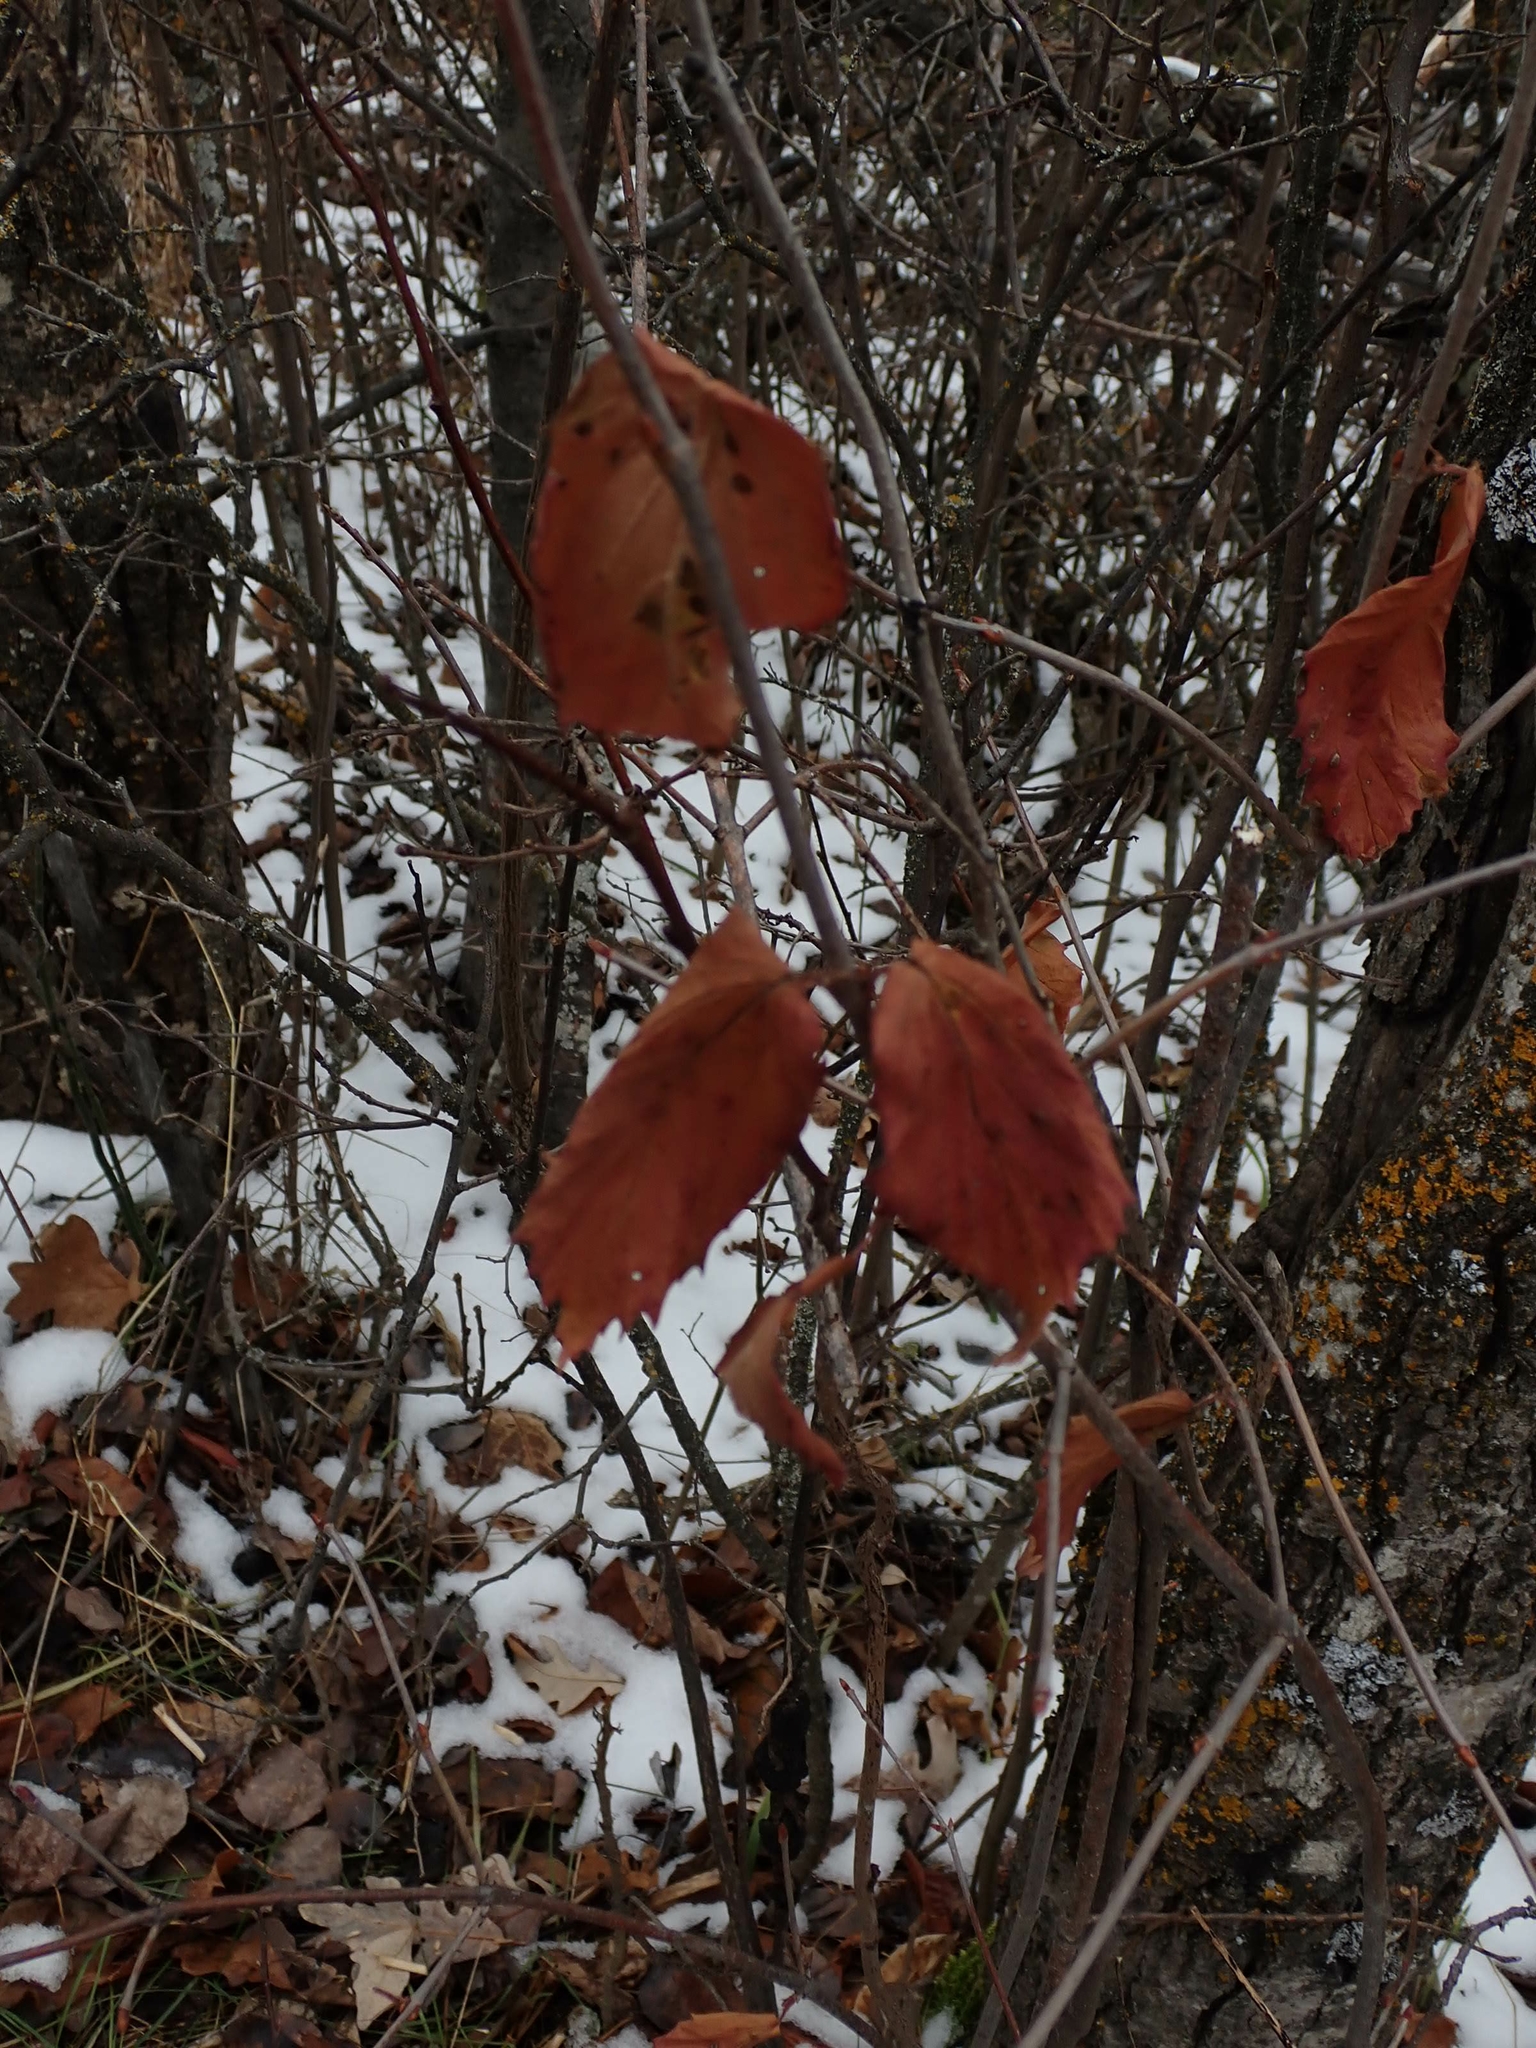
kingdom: Plantae
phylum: Tracheophyta
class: Magnoliopsida
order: Dipsacales
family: Viburnaceae
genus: Viburnum
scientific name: Viburnum rafinesqueanum
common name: Downy arrow-wood
